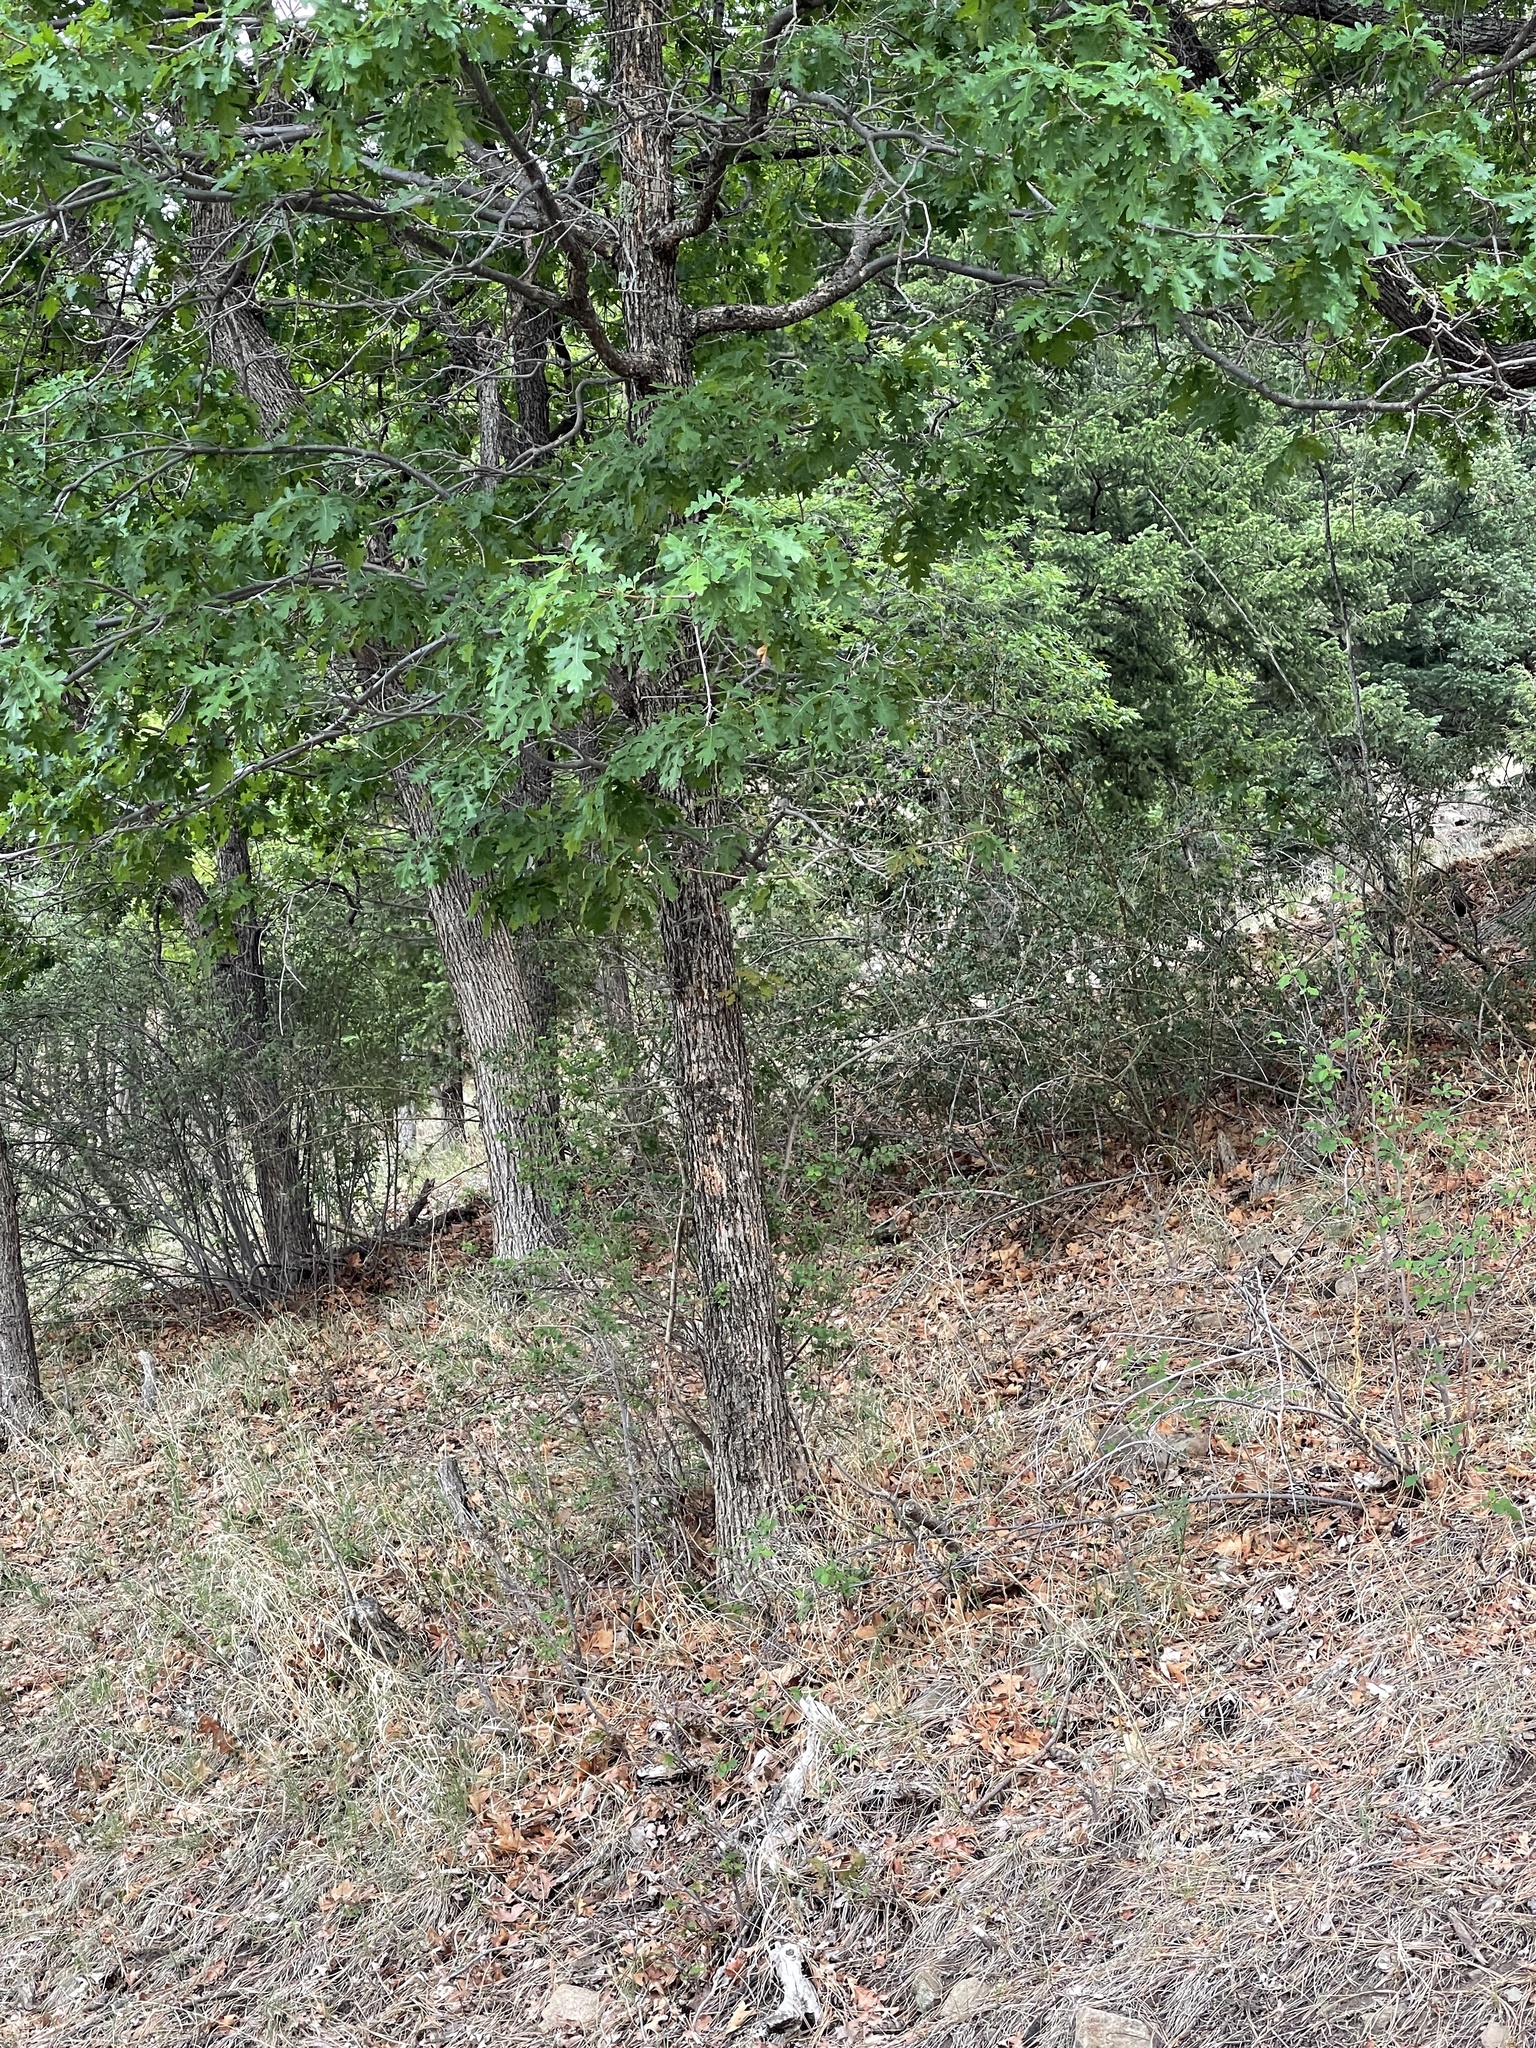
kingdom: Plantae
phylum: Tracheophyta
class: Magnoliopsida
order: Fagales
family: Fagaceae
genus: Quercus
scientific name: Quercus gambelii
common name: Gambel oak
